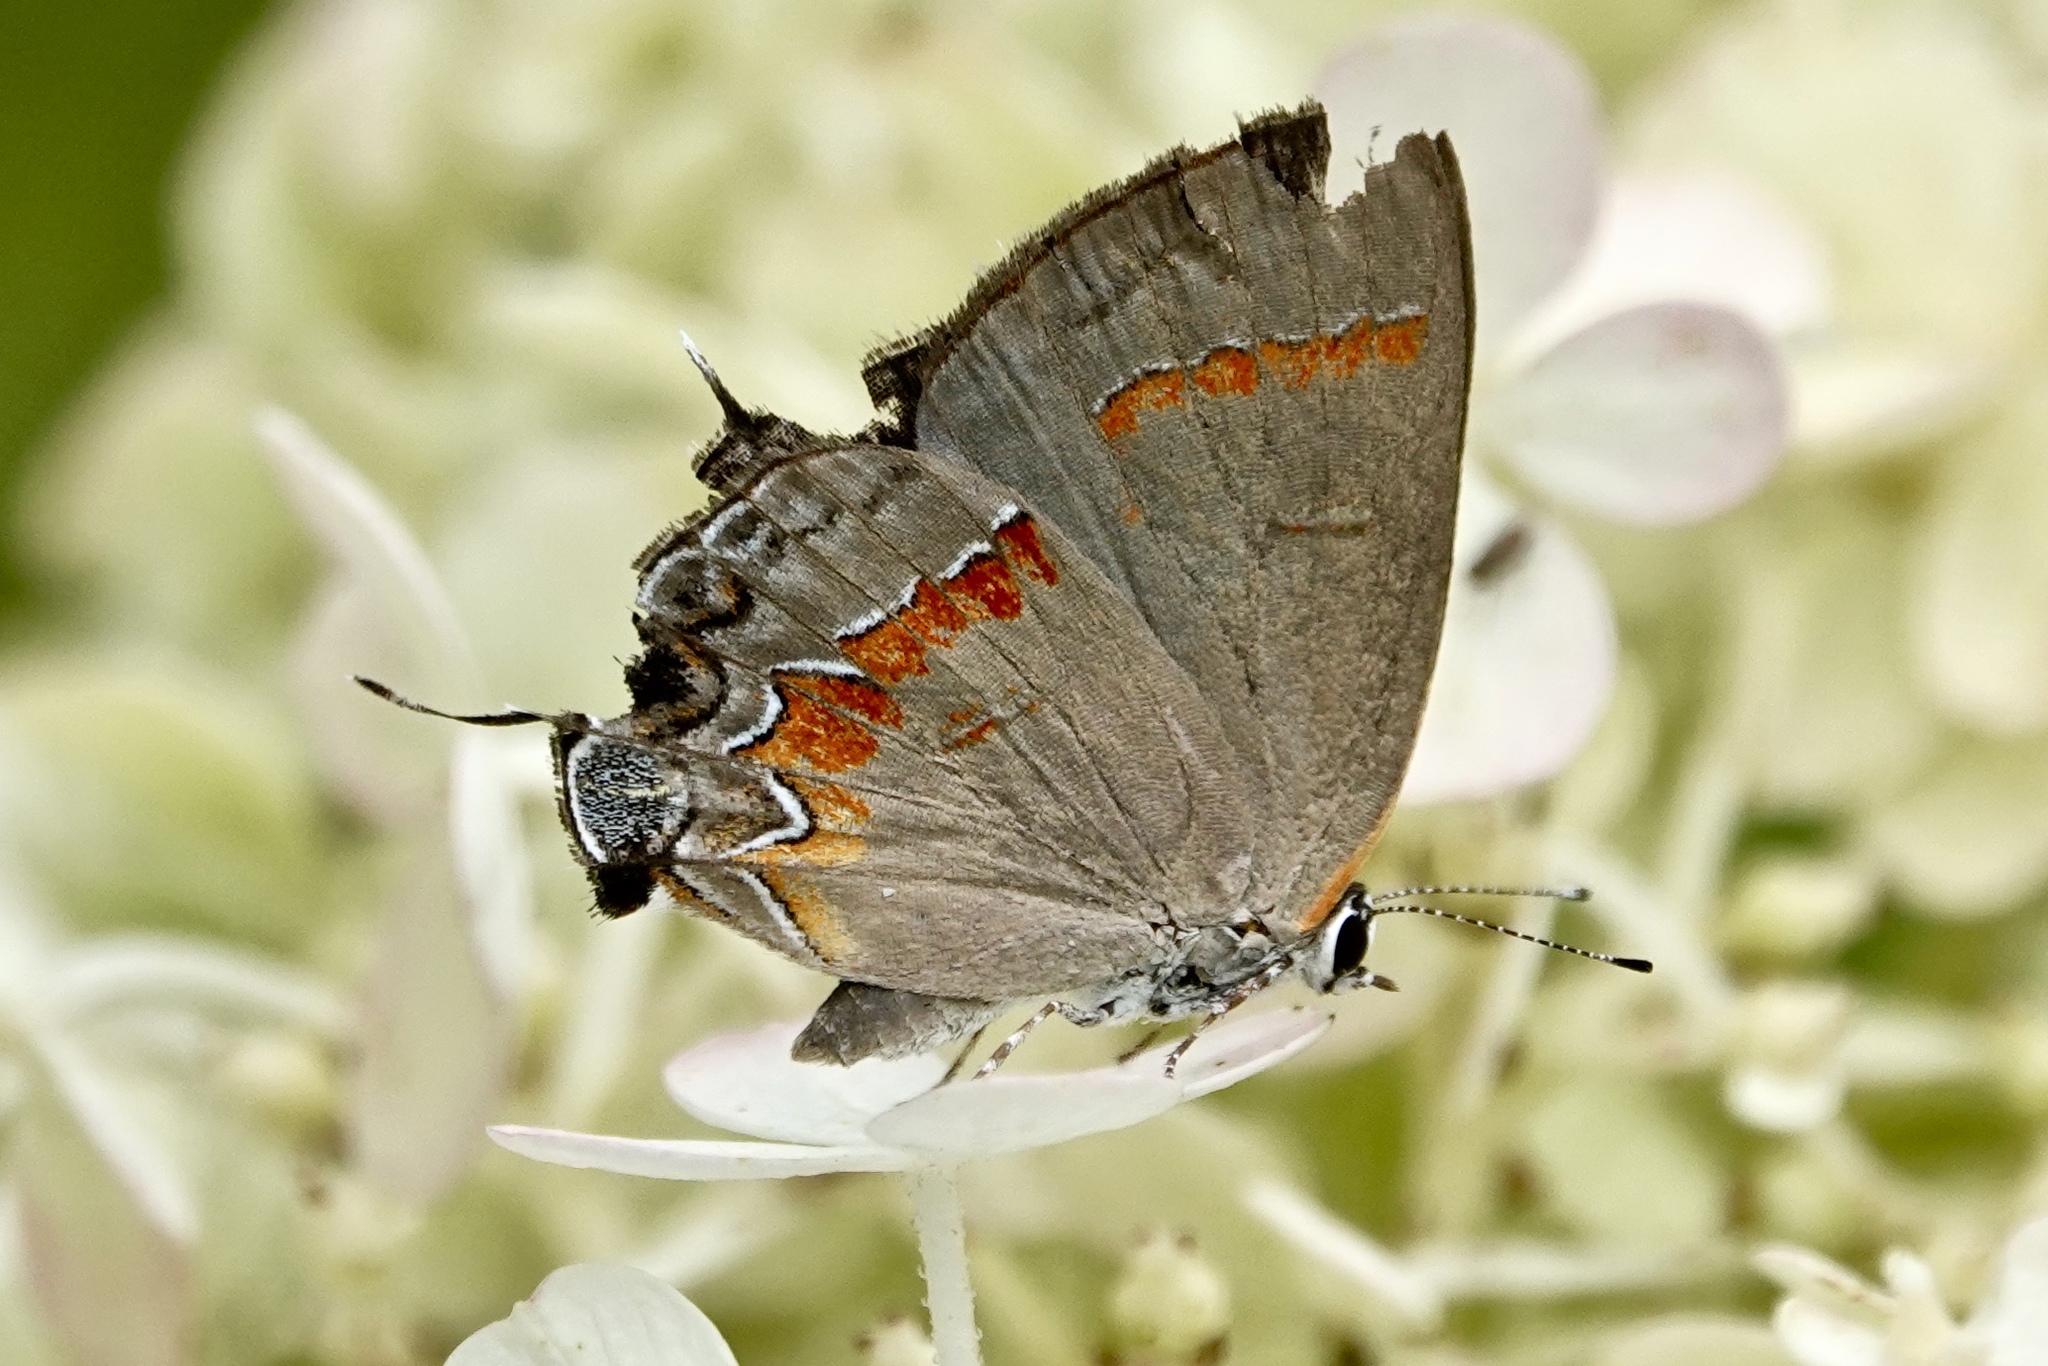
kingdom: Animalia
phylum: Arthropoda
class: Insecta
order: Lepidoptera
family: Lycaenidae
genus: Calycopis
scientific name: Calycopis cecrops
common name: Red-banded hairstreak
